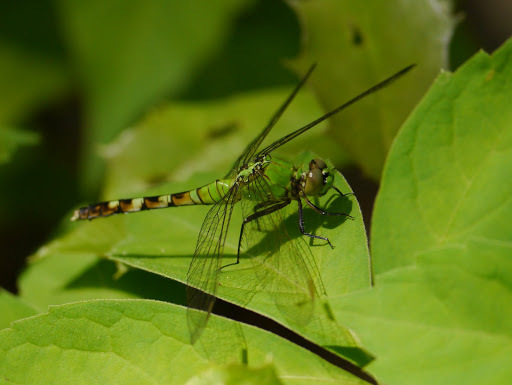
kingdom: Animalia
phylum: Arthropoda
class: Insecta
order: Odonata
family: Libellulidae
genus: Erythemis
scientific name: Erythemis simplicicollis
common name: Eastern pondhawk
